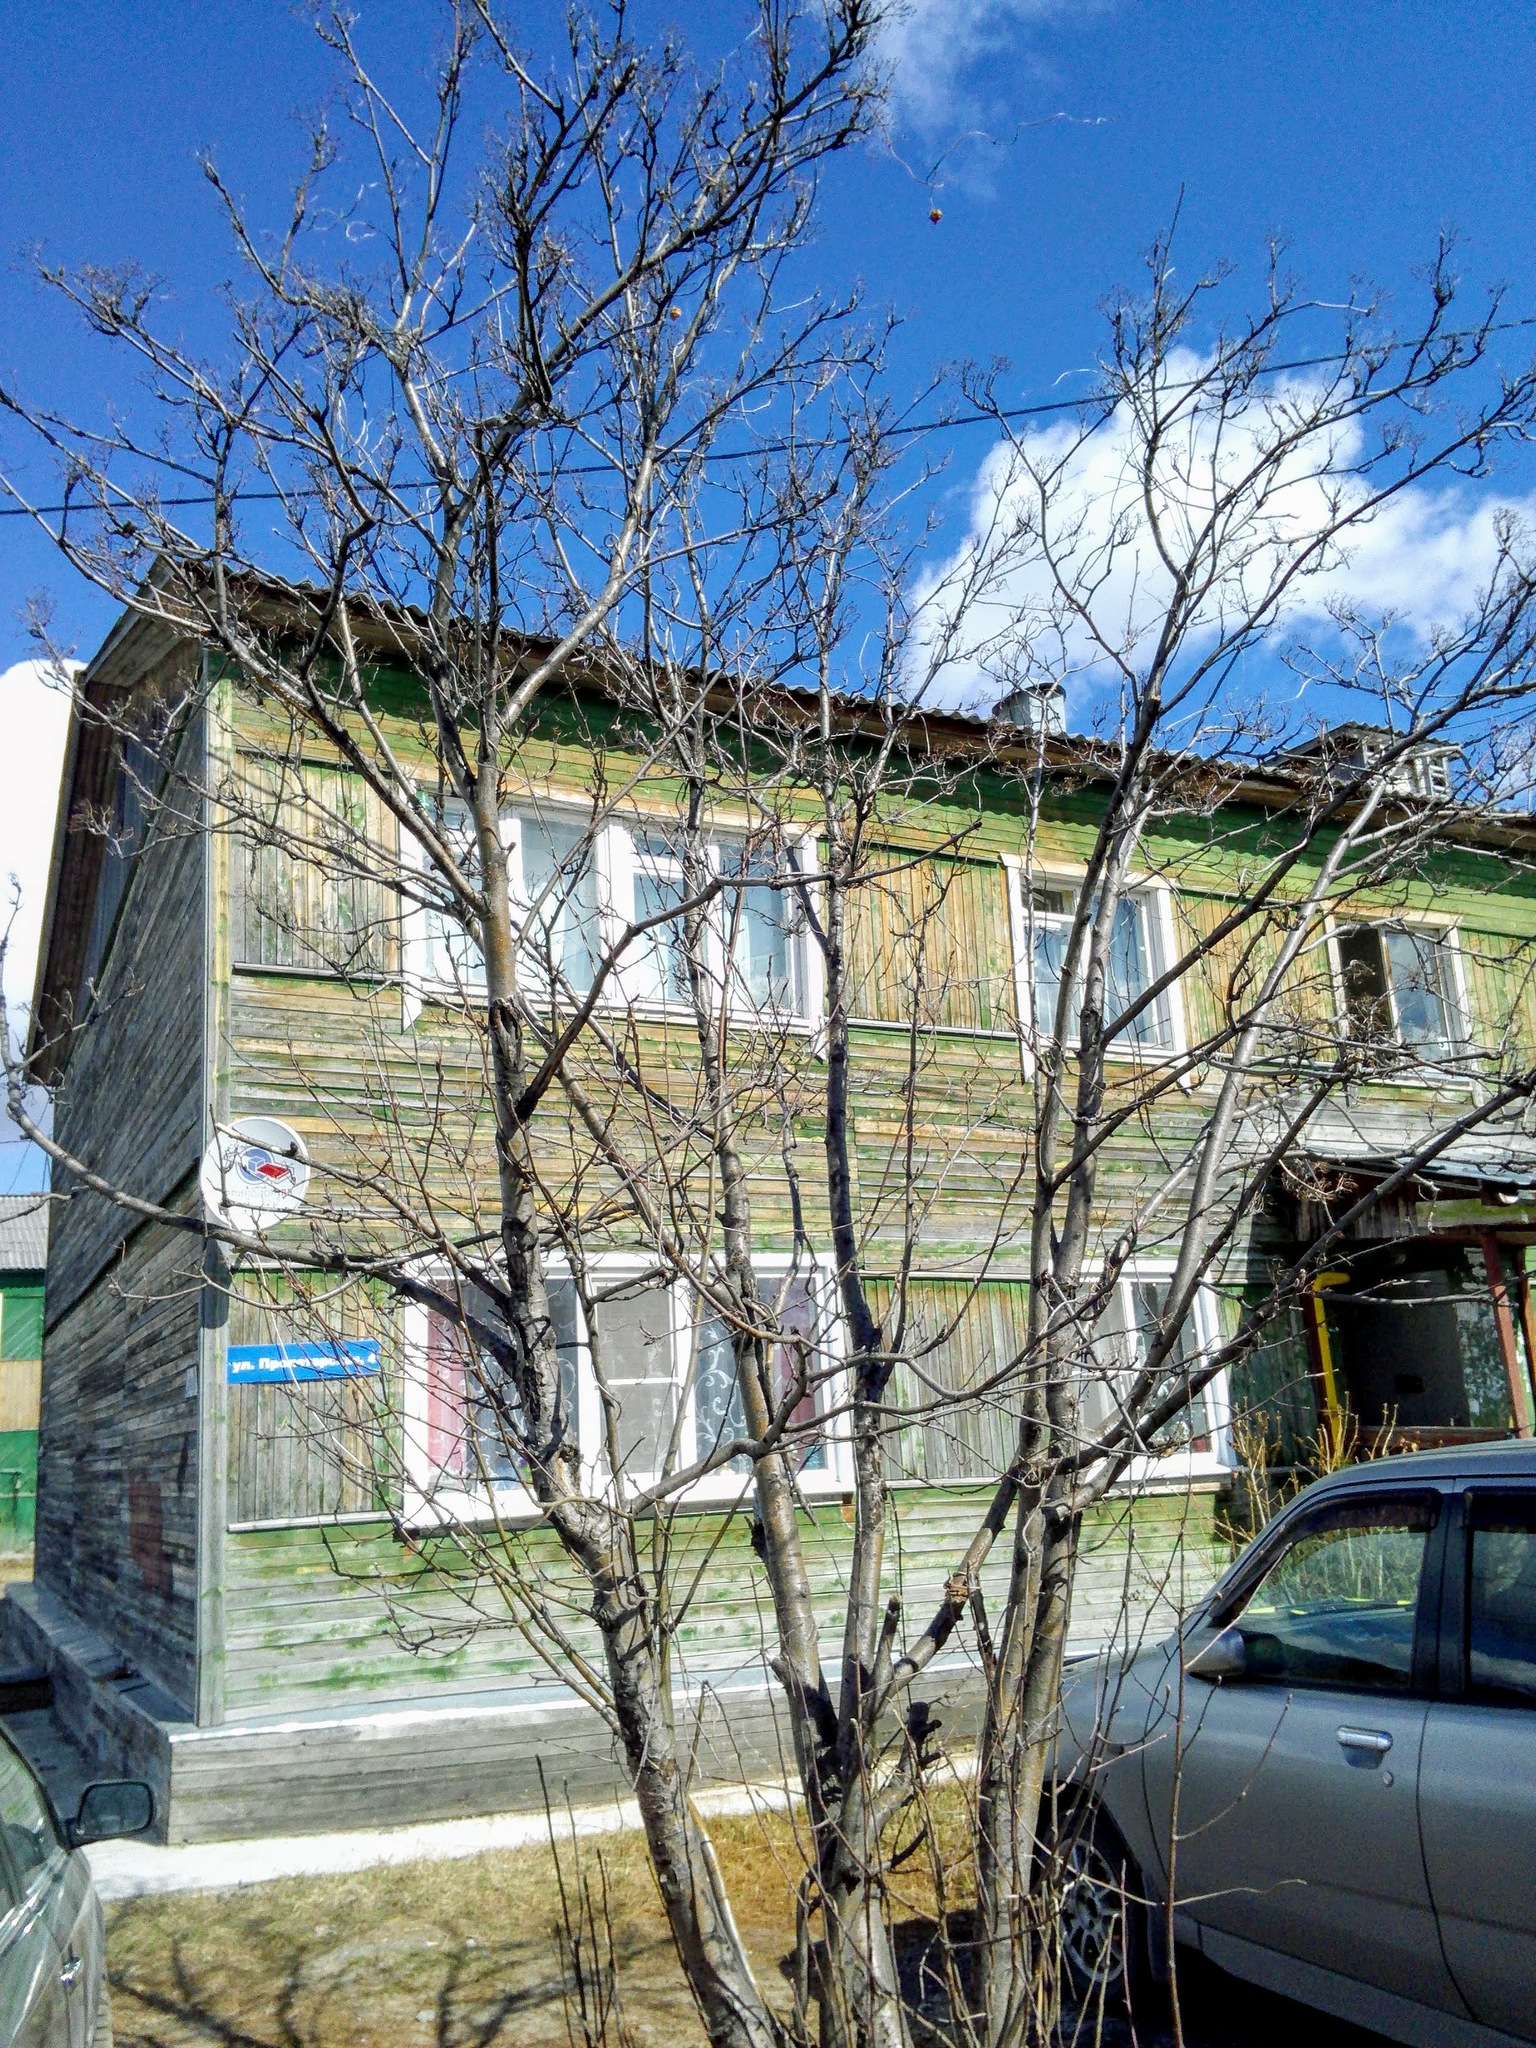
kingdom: Plantae
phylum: Tracheophyta
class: Magnoliopsida
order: Rosales
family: Rosaceae
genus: Sorbus
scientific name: Sorbus aucuparia
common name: Rowan
